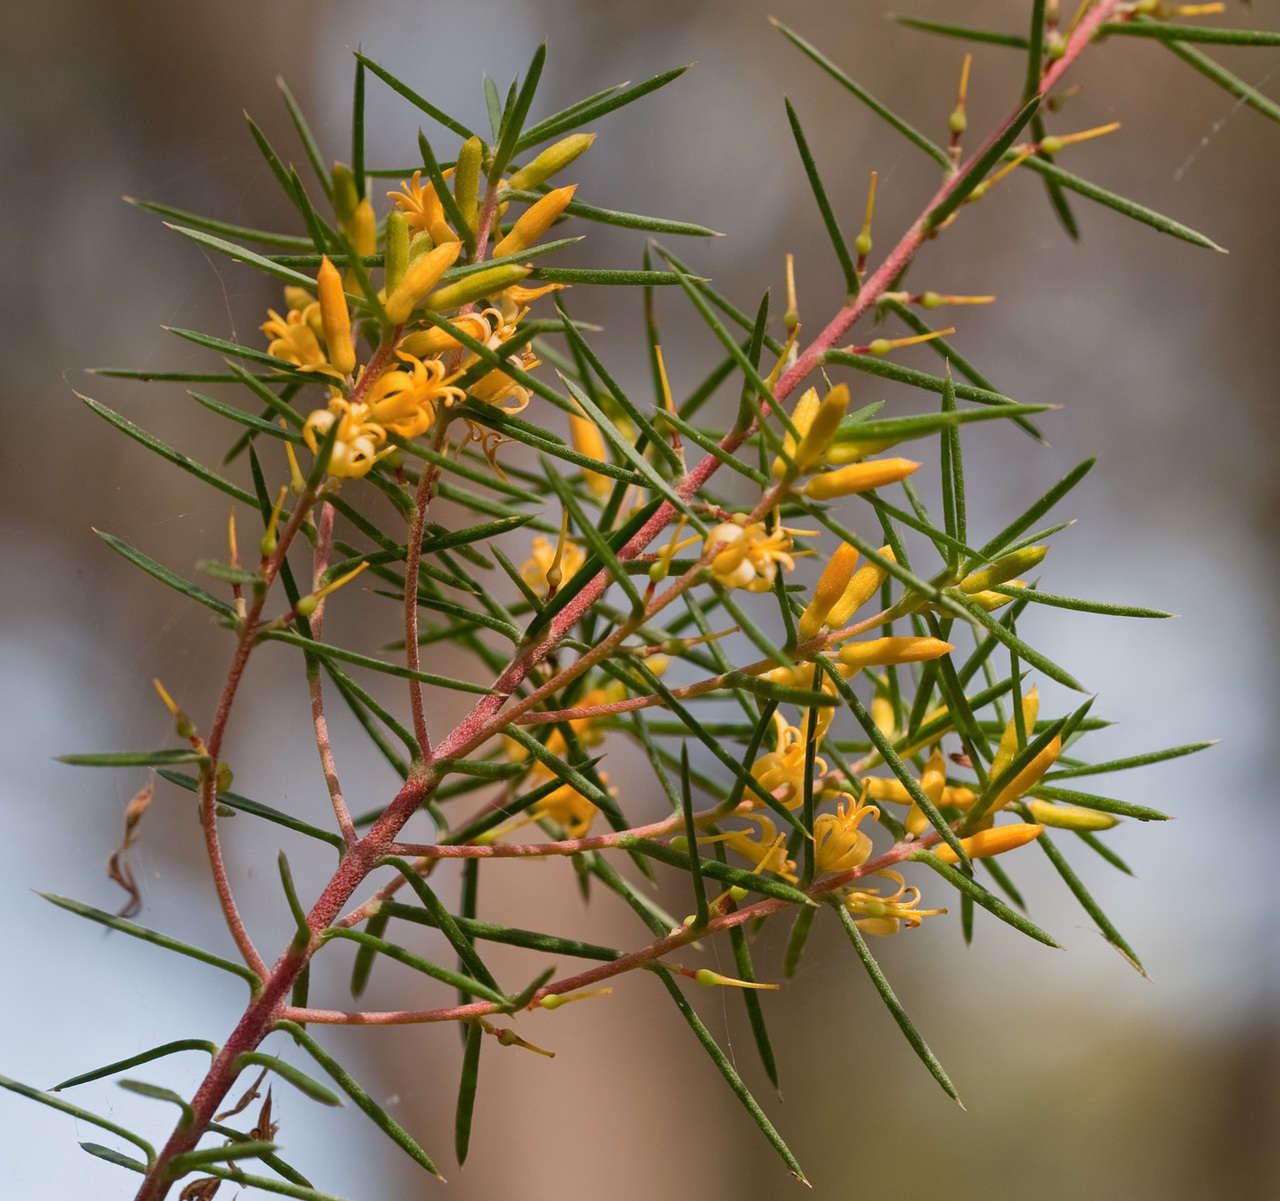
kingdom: Plantae
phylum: Tracheophyta
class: Magnoliopsida
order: Proteales
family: Proteaceae
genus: Persoonia
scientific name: Persoonia juniperina
